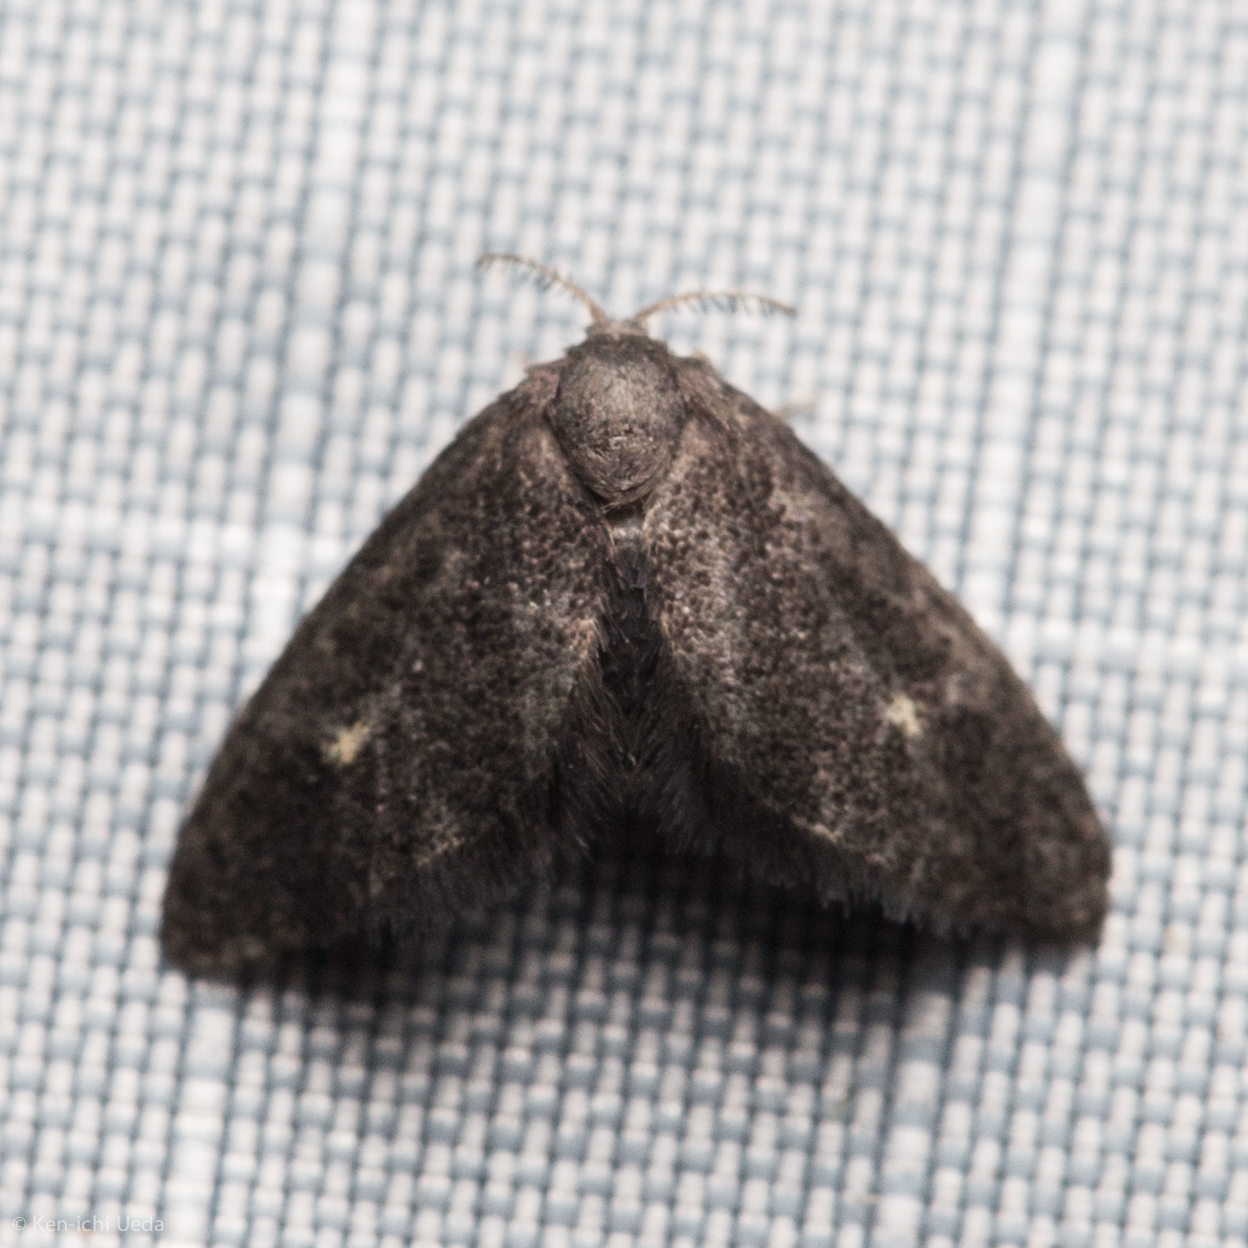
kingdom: Animalia
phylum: Arthropoda
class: Insecta
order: Lepidoptera
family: Epipyropidae
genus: Fulgoraecia
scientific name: Fulgoraecia exigua
